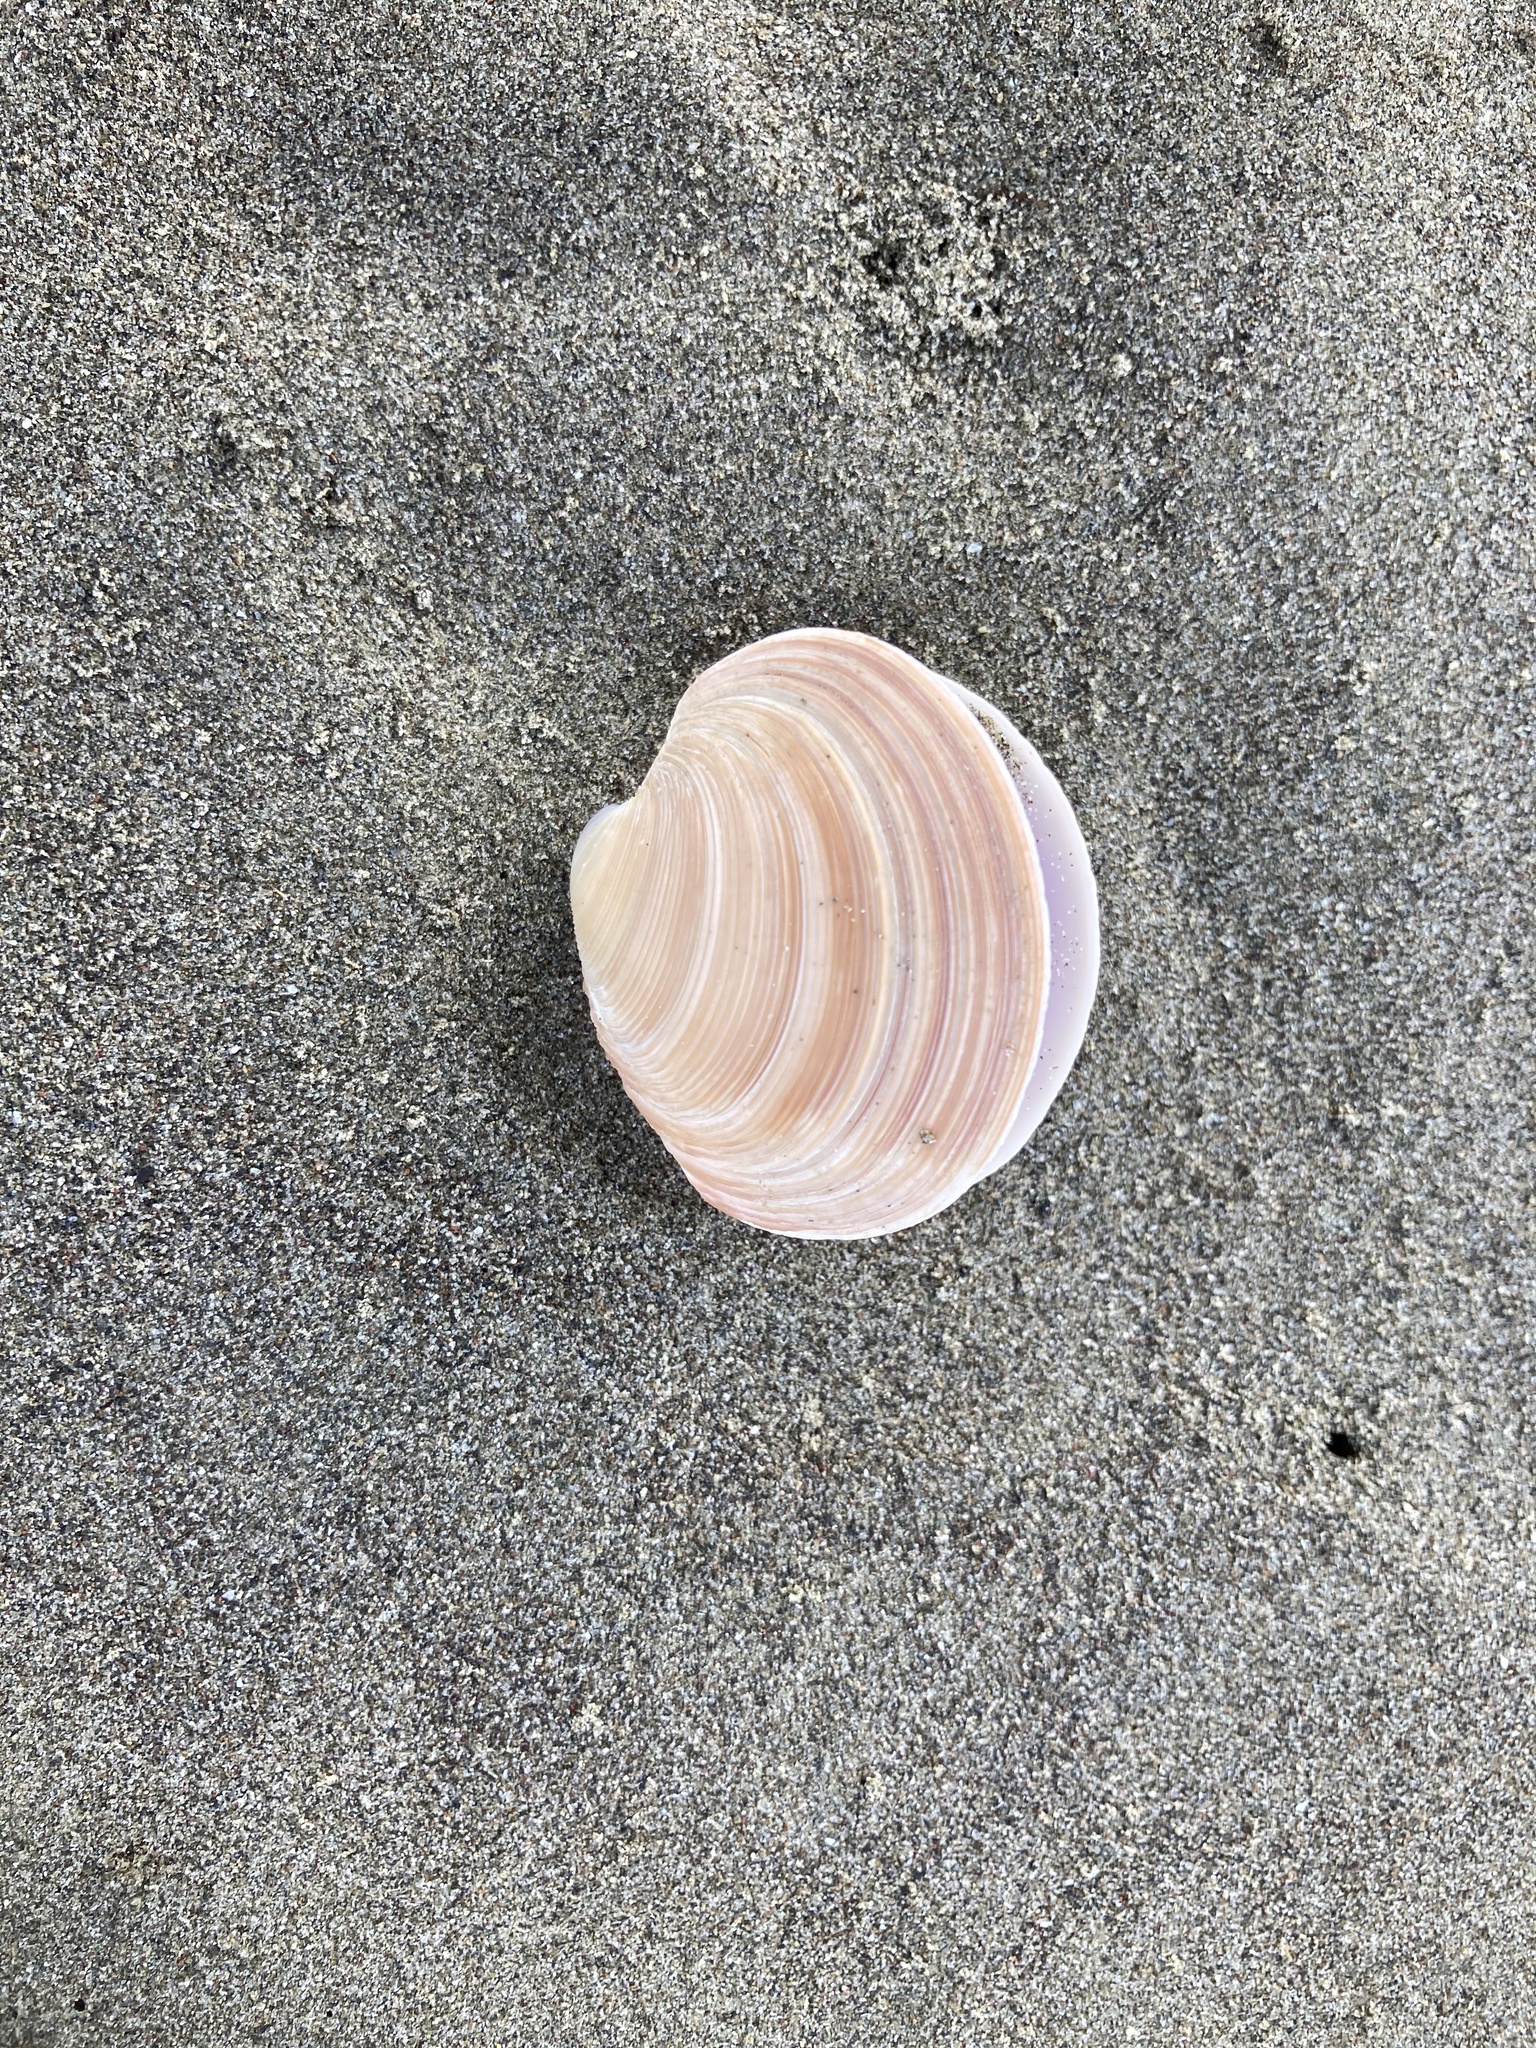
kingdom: Animalia
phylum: Mollusca
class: Bivalvia
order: Venerida
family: Veneridae
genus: Dosinia
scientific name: Dosinia anus
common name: Old-woman dosinia
